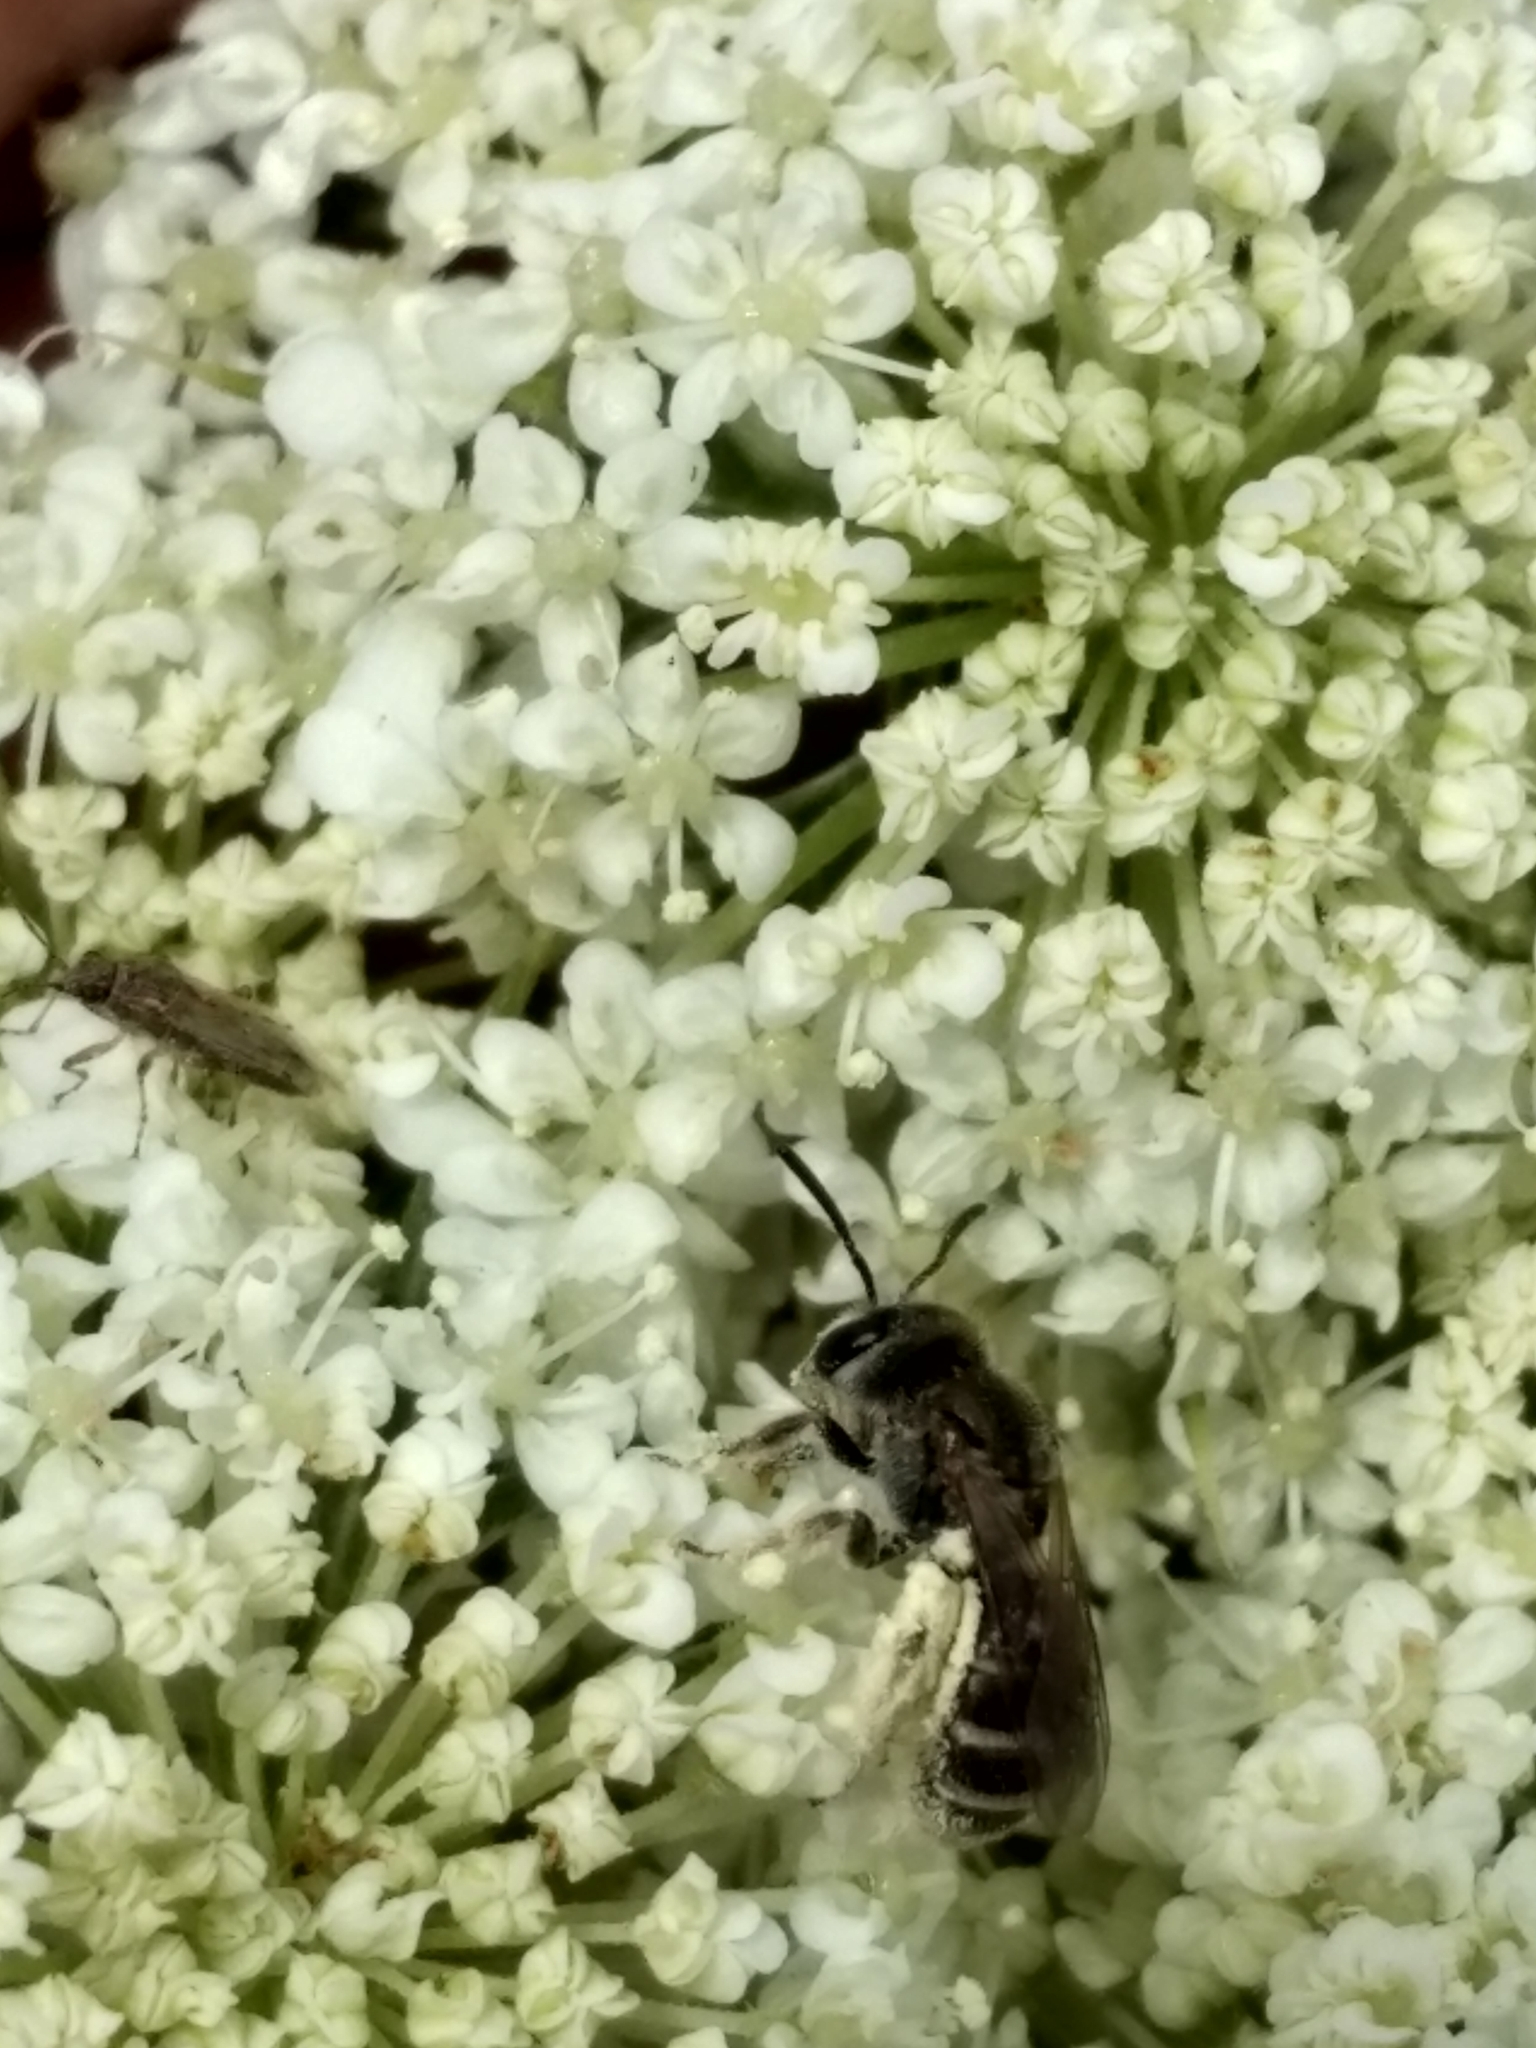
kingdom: Animalia
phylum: Arthropoda
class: Insecta
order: Hymenoptera
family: Halictidae
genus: Halictus
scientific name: Halictus tripartitus
